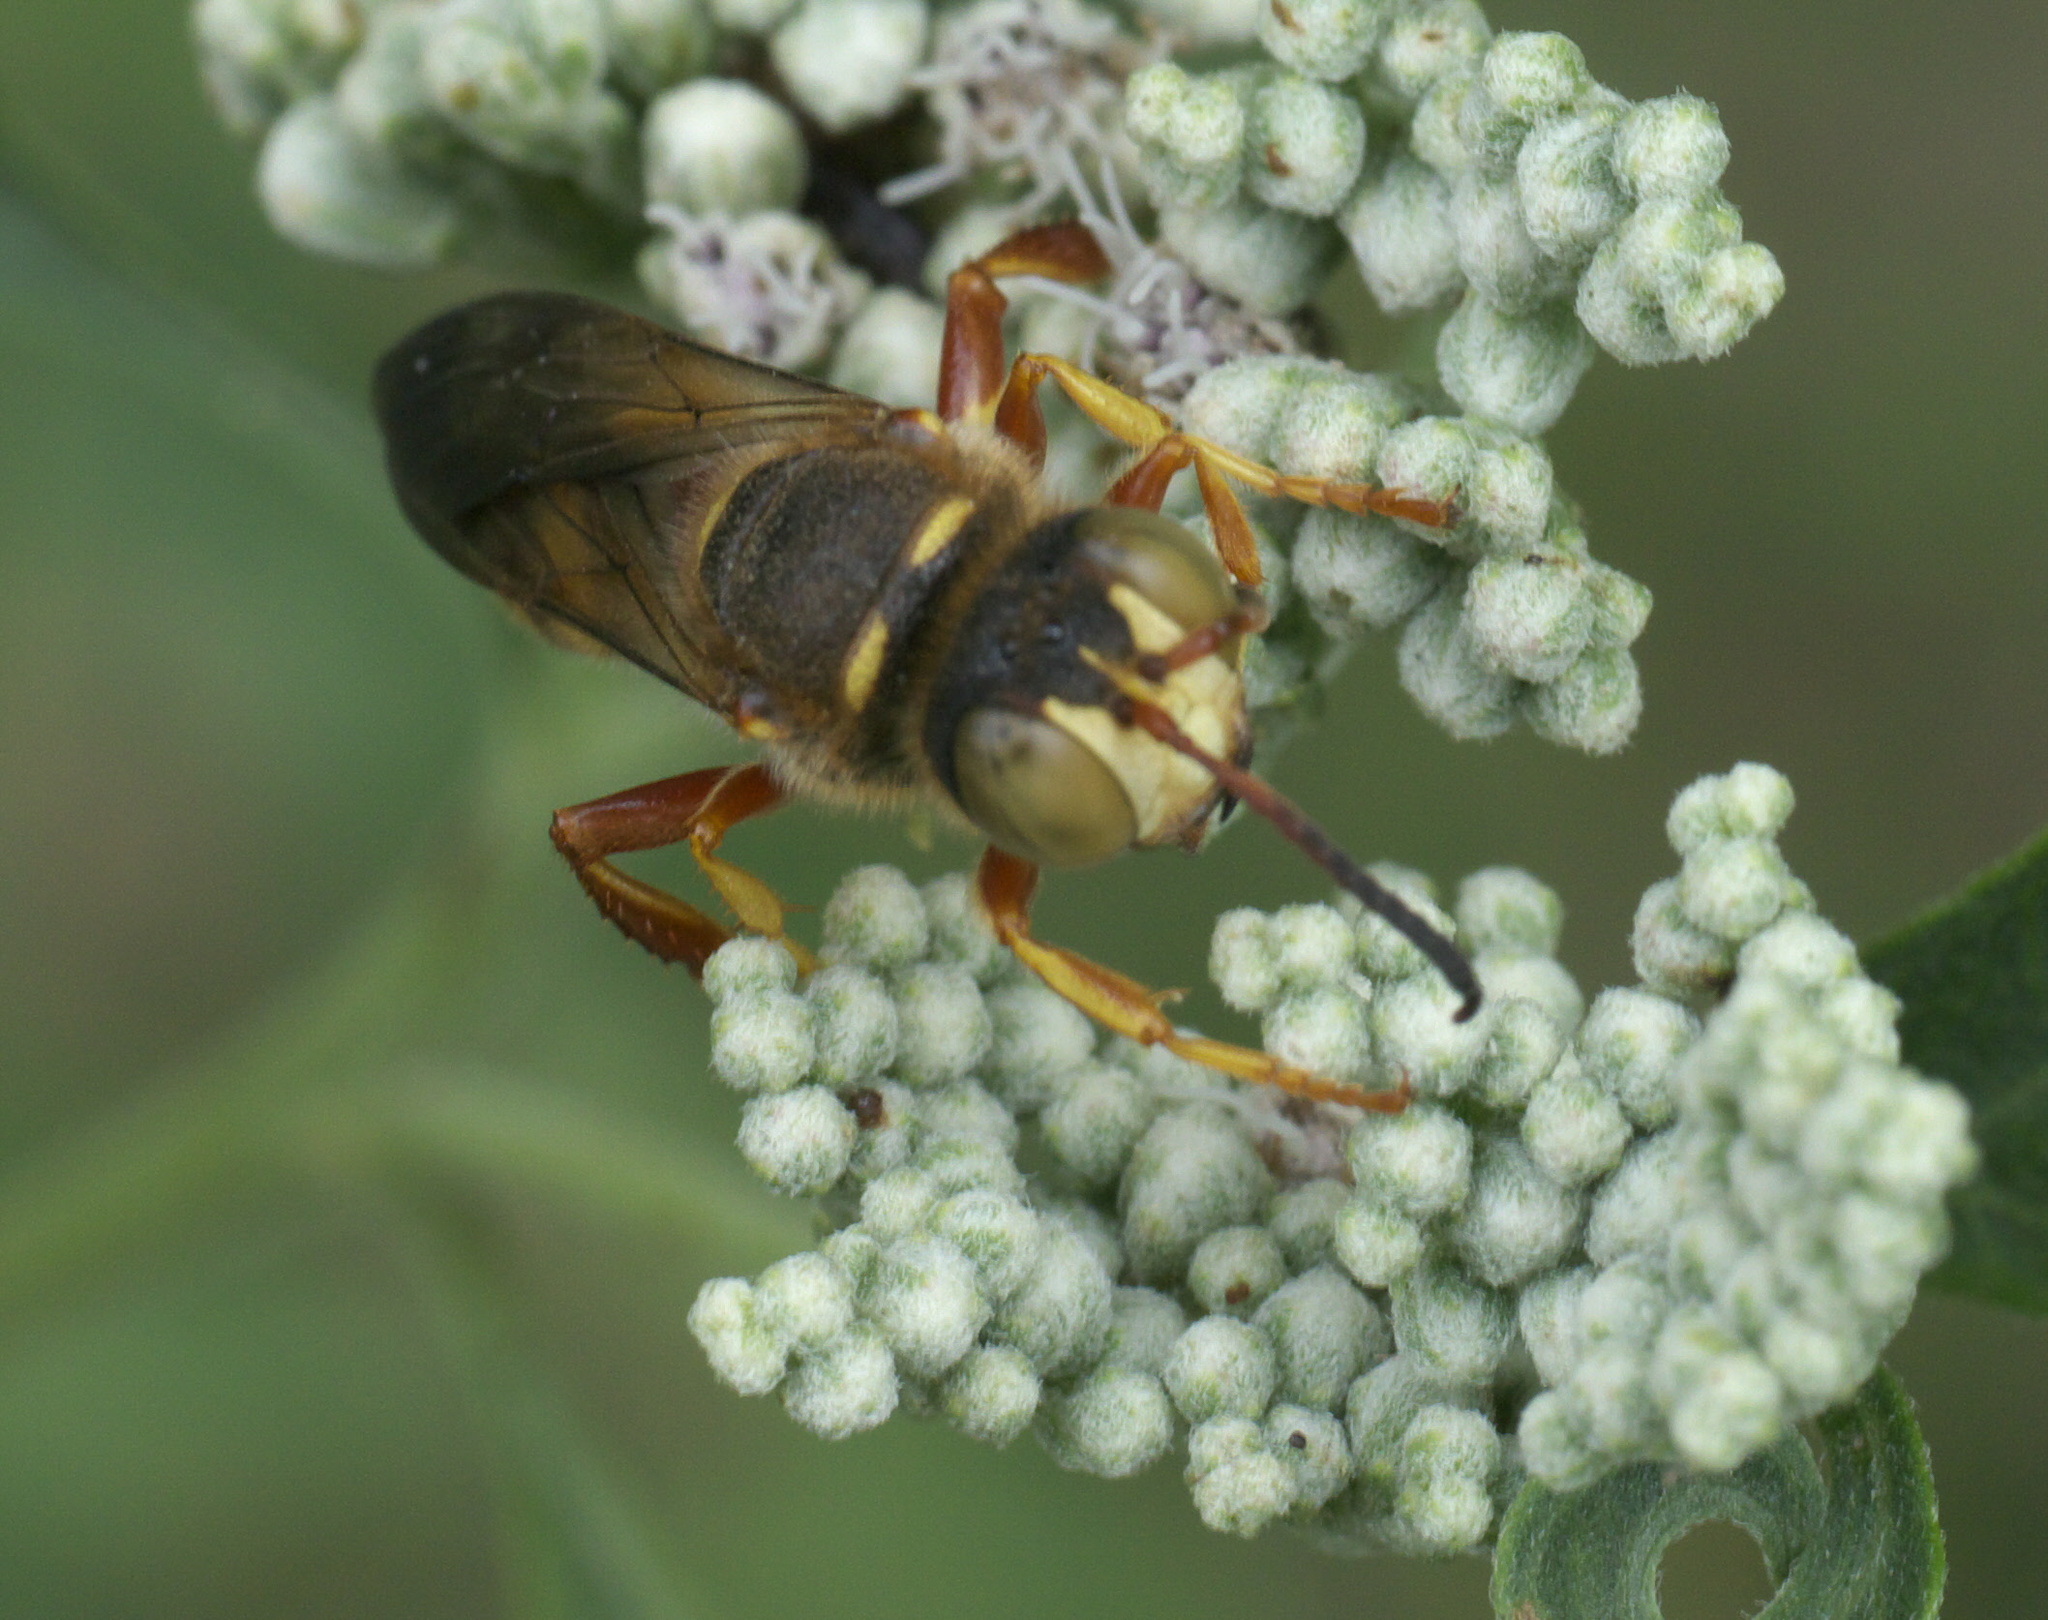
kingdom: Animalia
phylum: Arthropoda
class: Insecta
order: Hymenoptera
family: Crabronidae
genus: Cerceris
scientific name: Cerceris bicornuta
